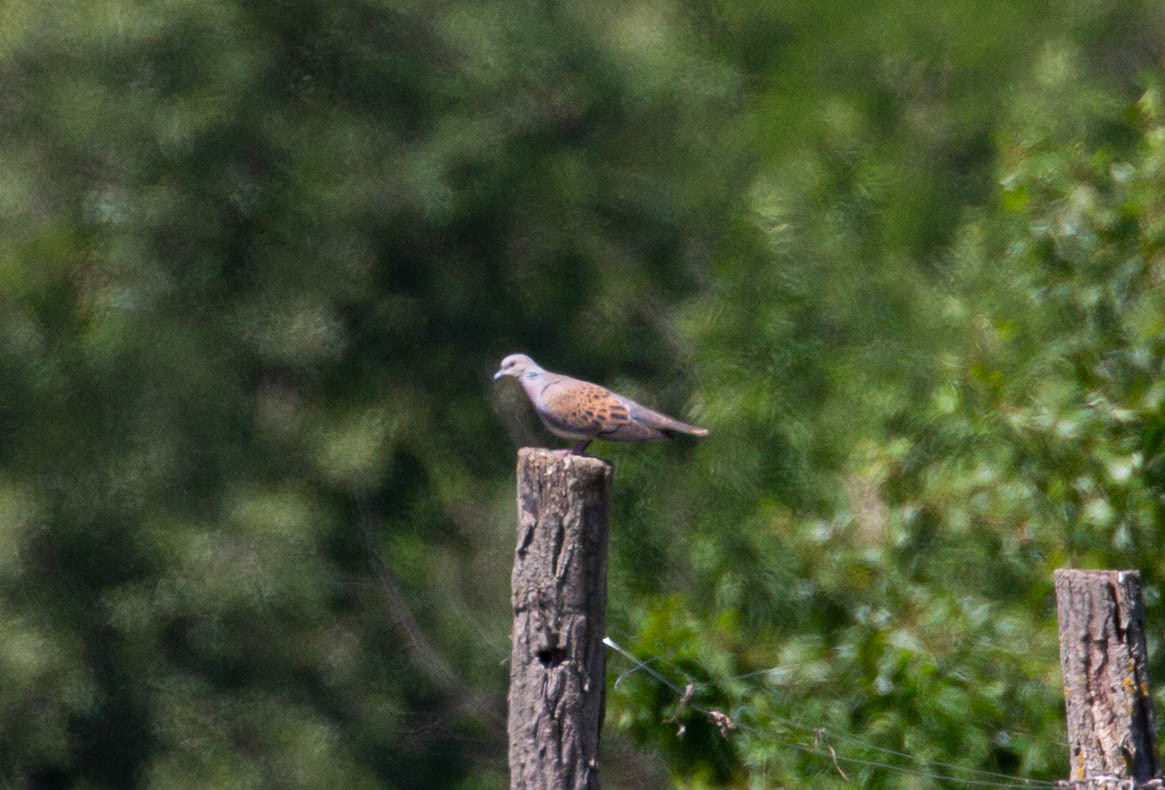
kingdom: Animalia
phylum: Chordata
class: Aves
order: Columbiformes
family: Columbidae
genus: Streptopelia
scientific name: Streptopelia turtur
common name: European turtle dove
